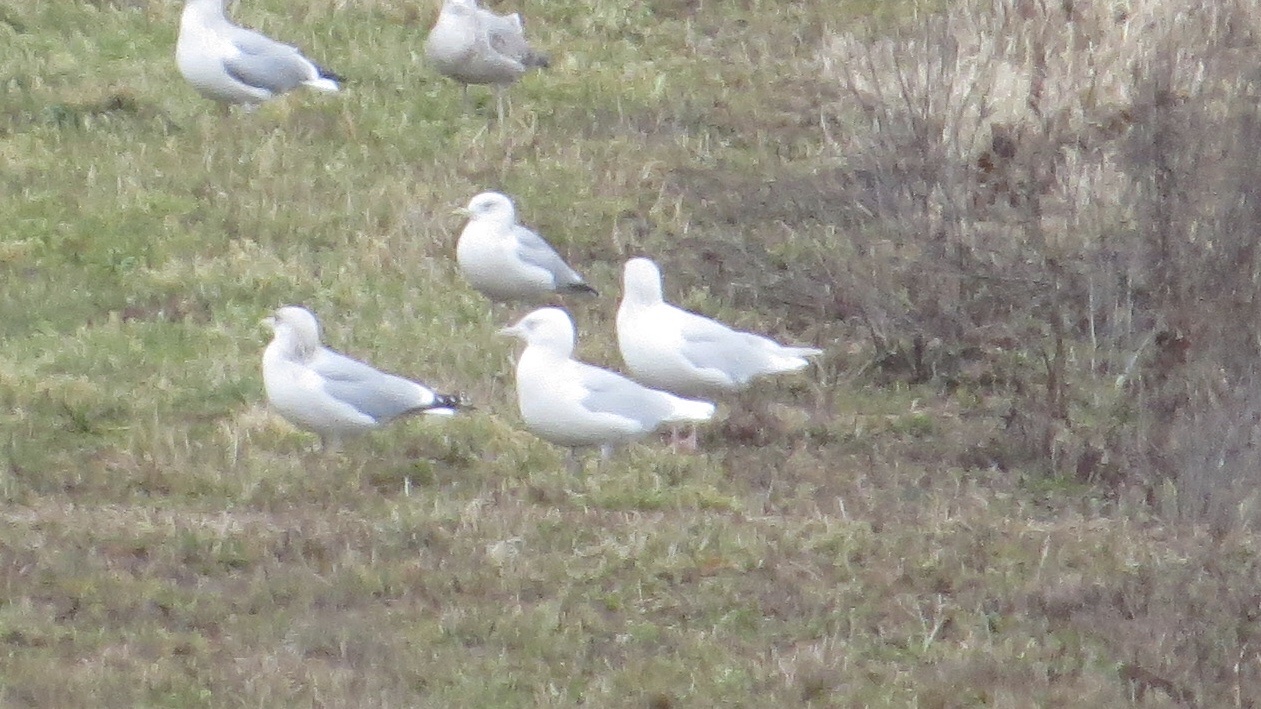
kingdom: Animalia
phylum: Chordata
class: Aves
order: Charadriiformes
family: Laridae
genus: Larus
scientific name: Larus hyperboreus
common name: Glaucous gull
